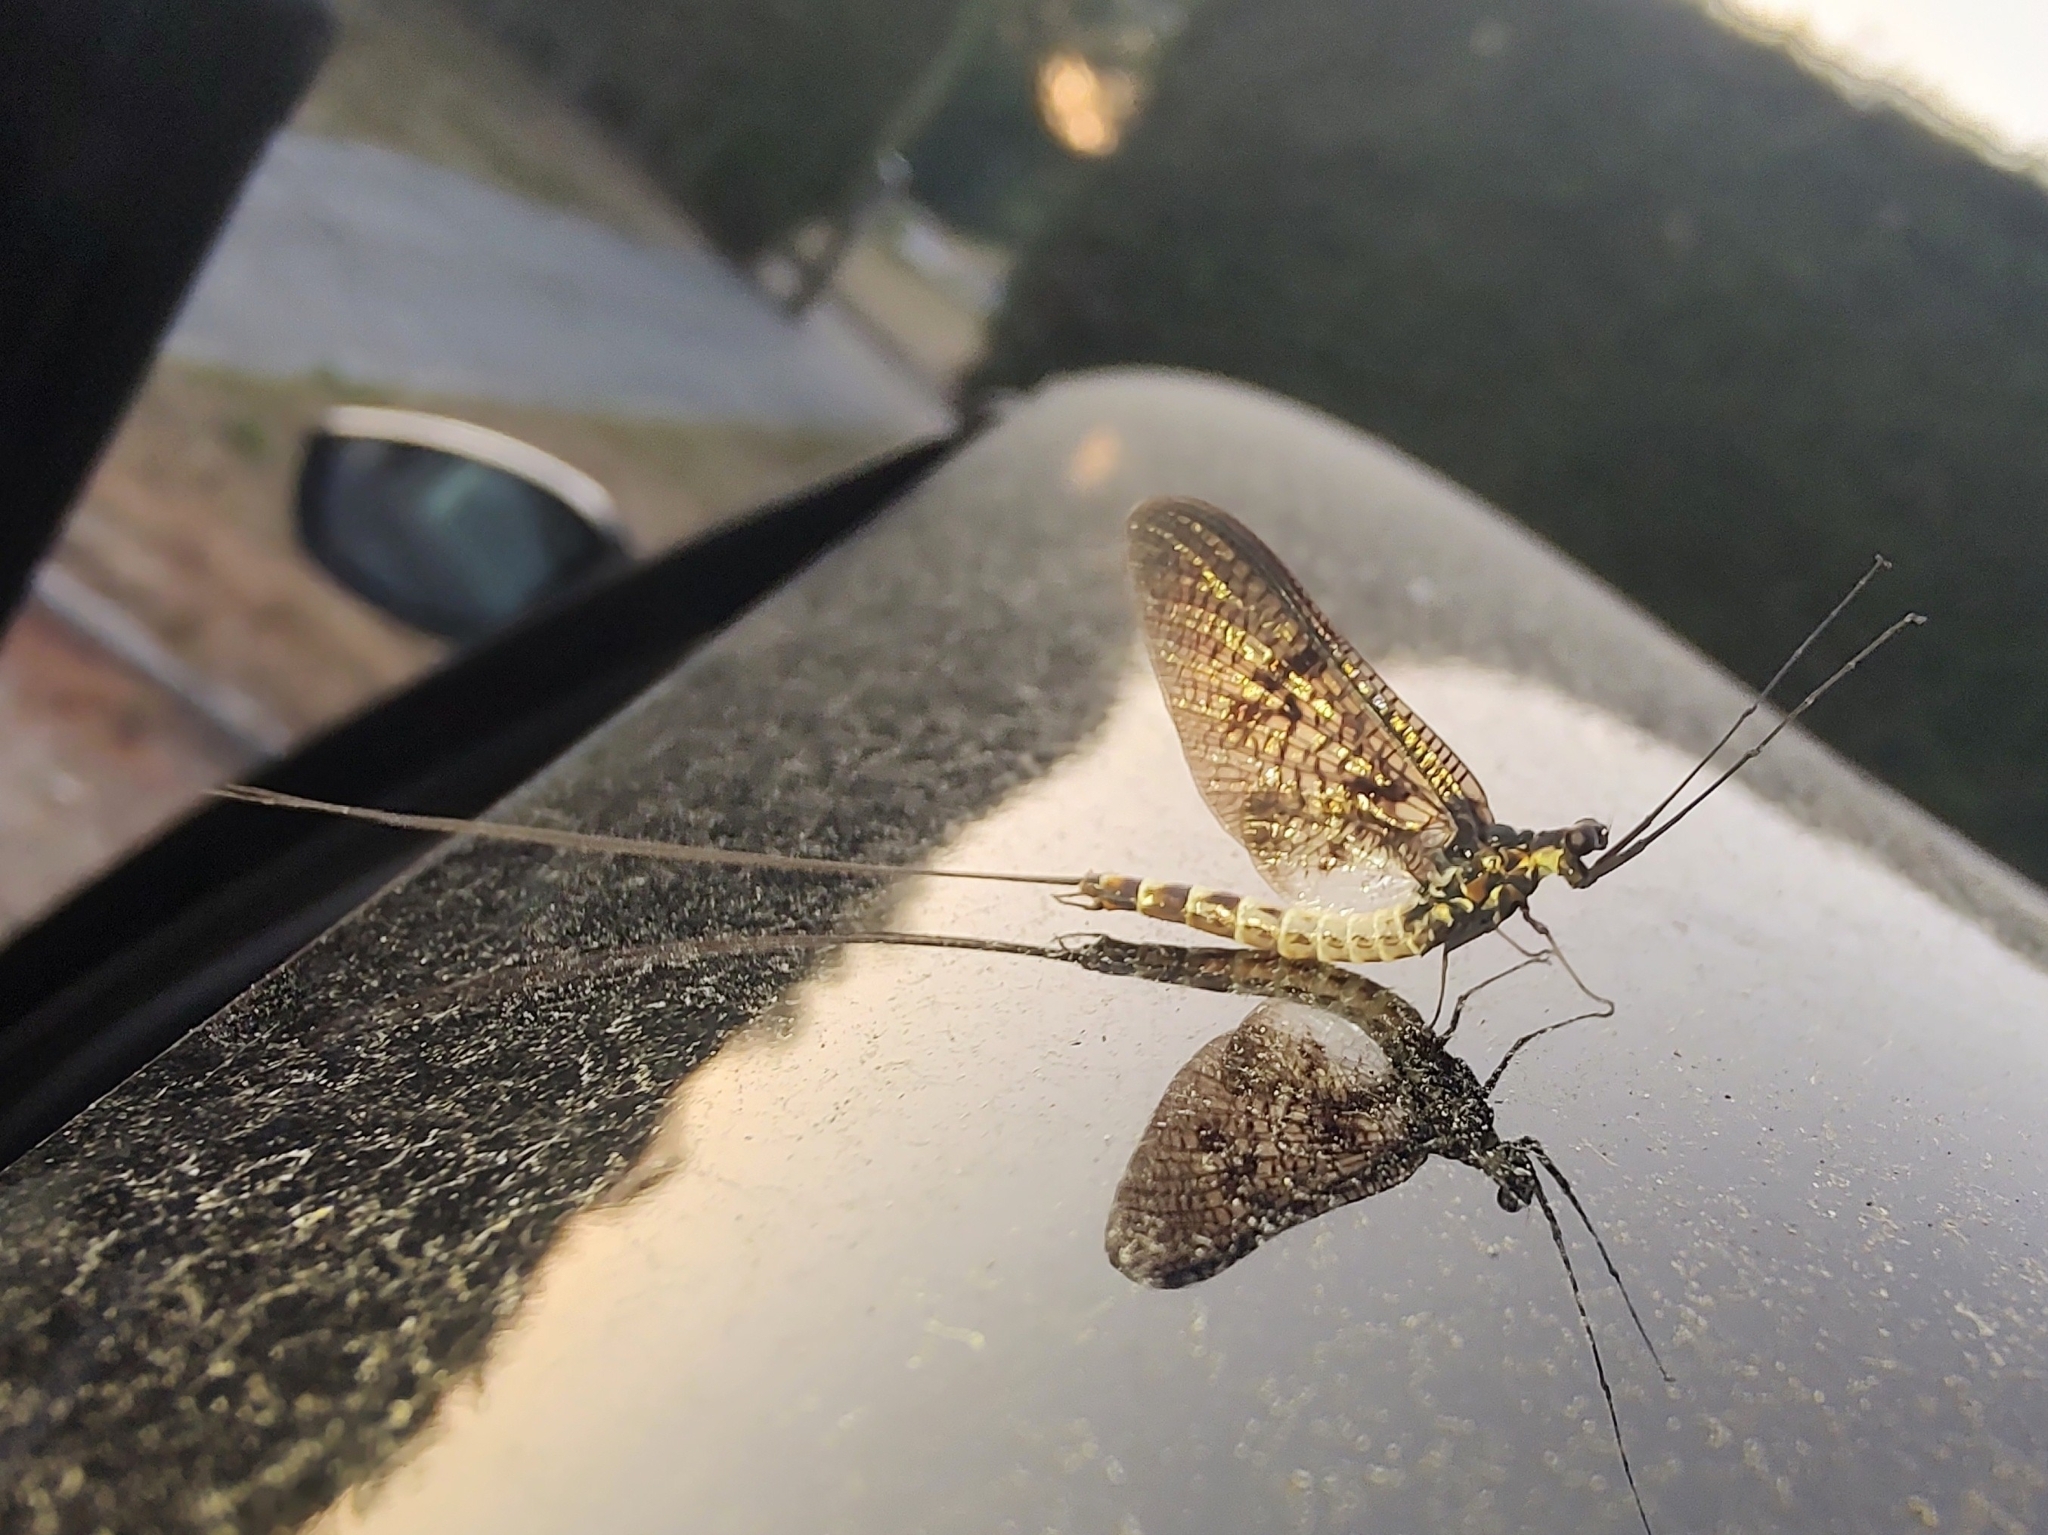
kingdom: Animalia
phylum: Arthropoda
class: Insecta
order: Ephemeroptera
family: Ephemeridae
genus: Ephemera
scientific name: Ephemera danica
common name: Green dun
